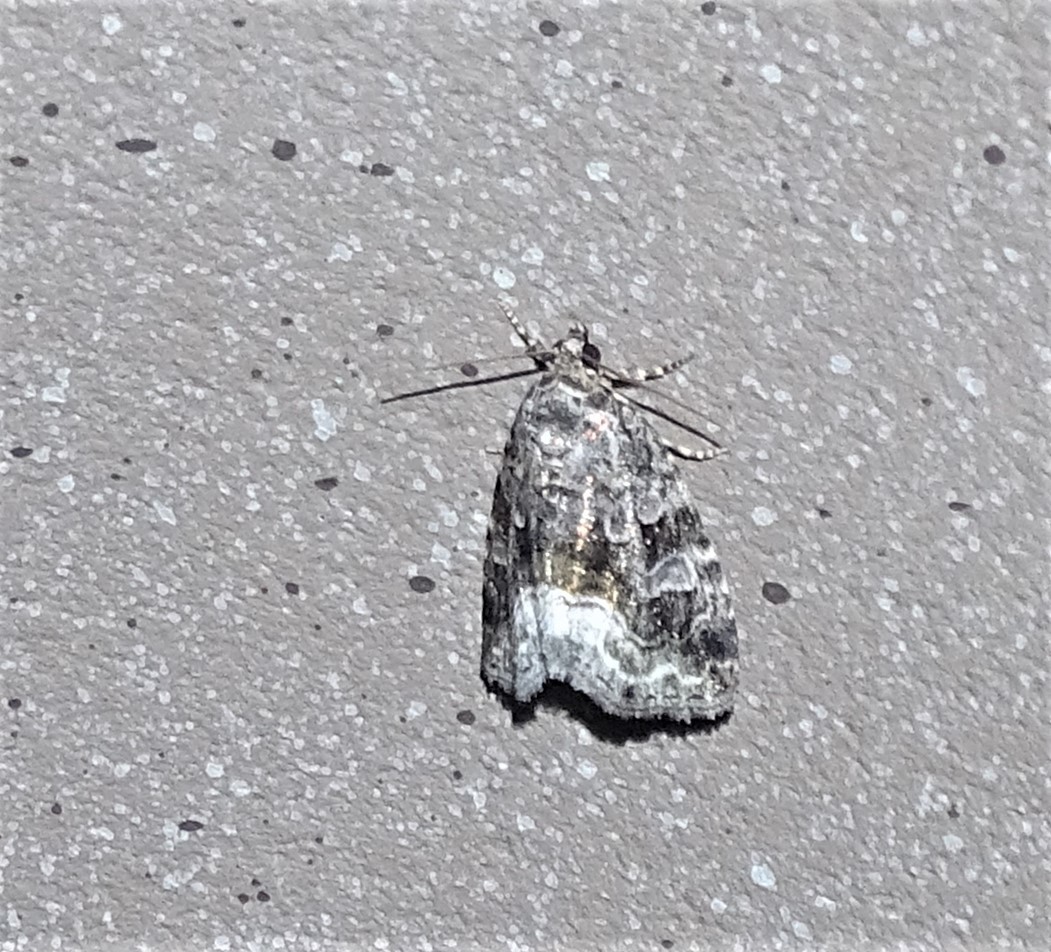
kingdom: Animalia
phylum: Arthropoda
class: Insecta
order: Lepidoptera
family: Noctuidae
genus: Protodeltote
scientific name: Protodeltote muscosula
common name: Large mossy glyph
